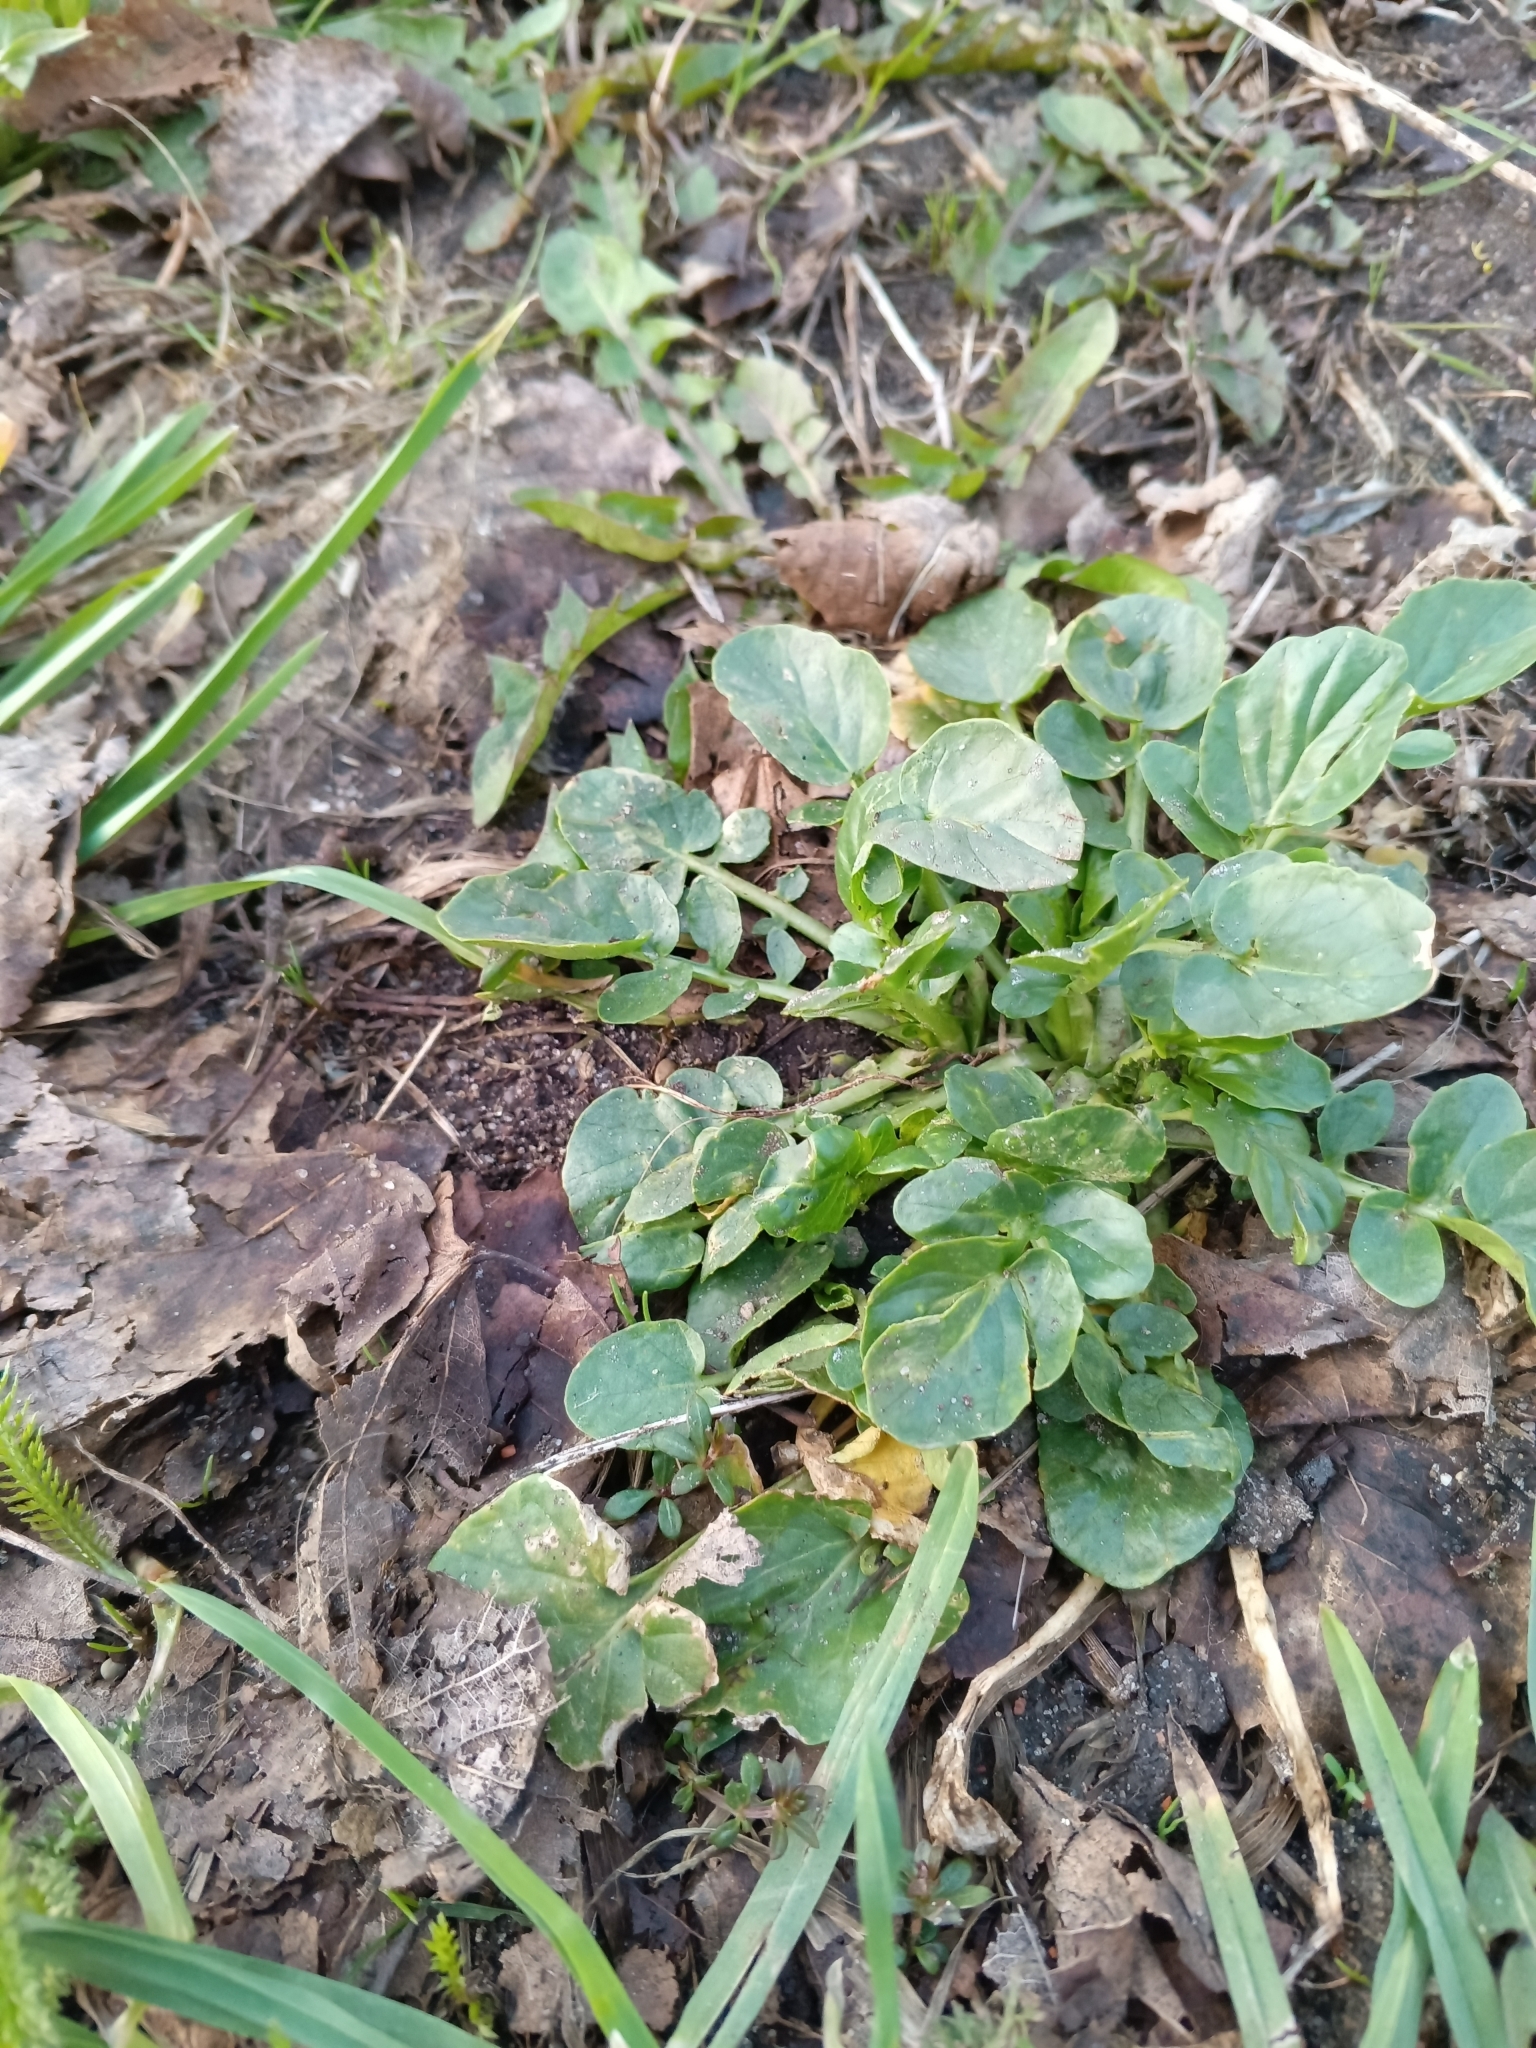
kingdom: Plantae
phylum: Tracheophyta
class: Magnoliopsida
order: Brassicales
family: Brassicaceae
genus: Barbarea
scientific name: Barbarea vulgaris
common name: Cressy-greens
